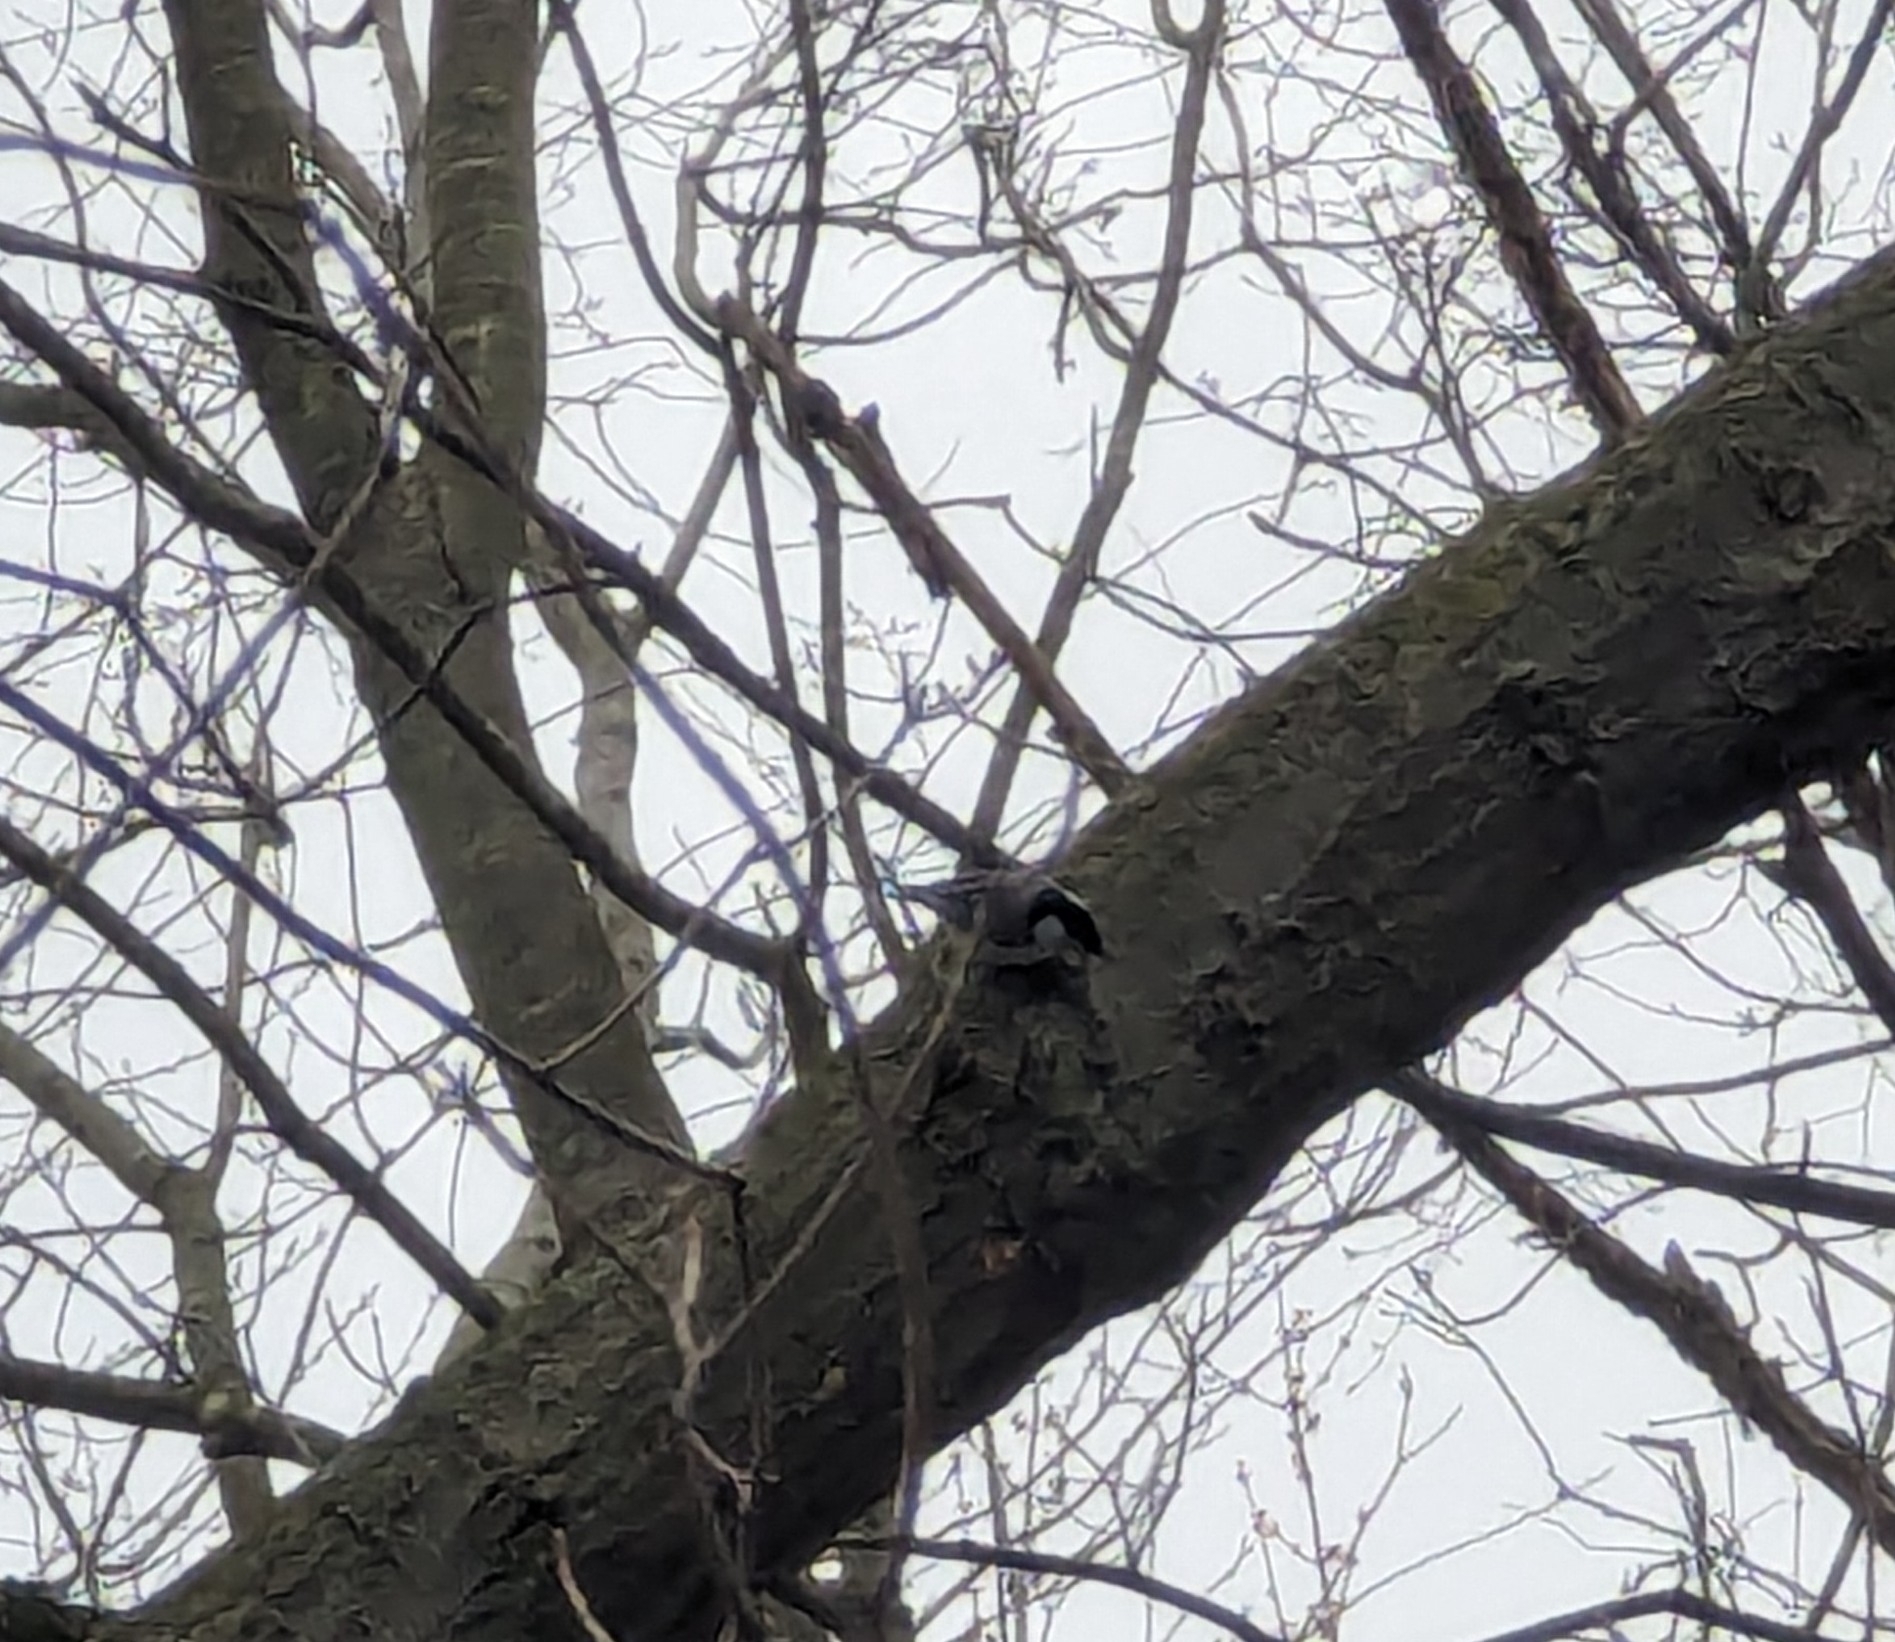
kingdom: Animalia
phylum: Chordata
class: Aves
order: Passeriformes
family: Sittidae
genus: Sitta
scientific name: Sitta carolinensis
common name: White-breasted nuthatch
